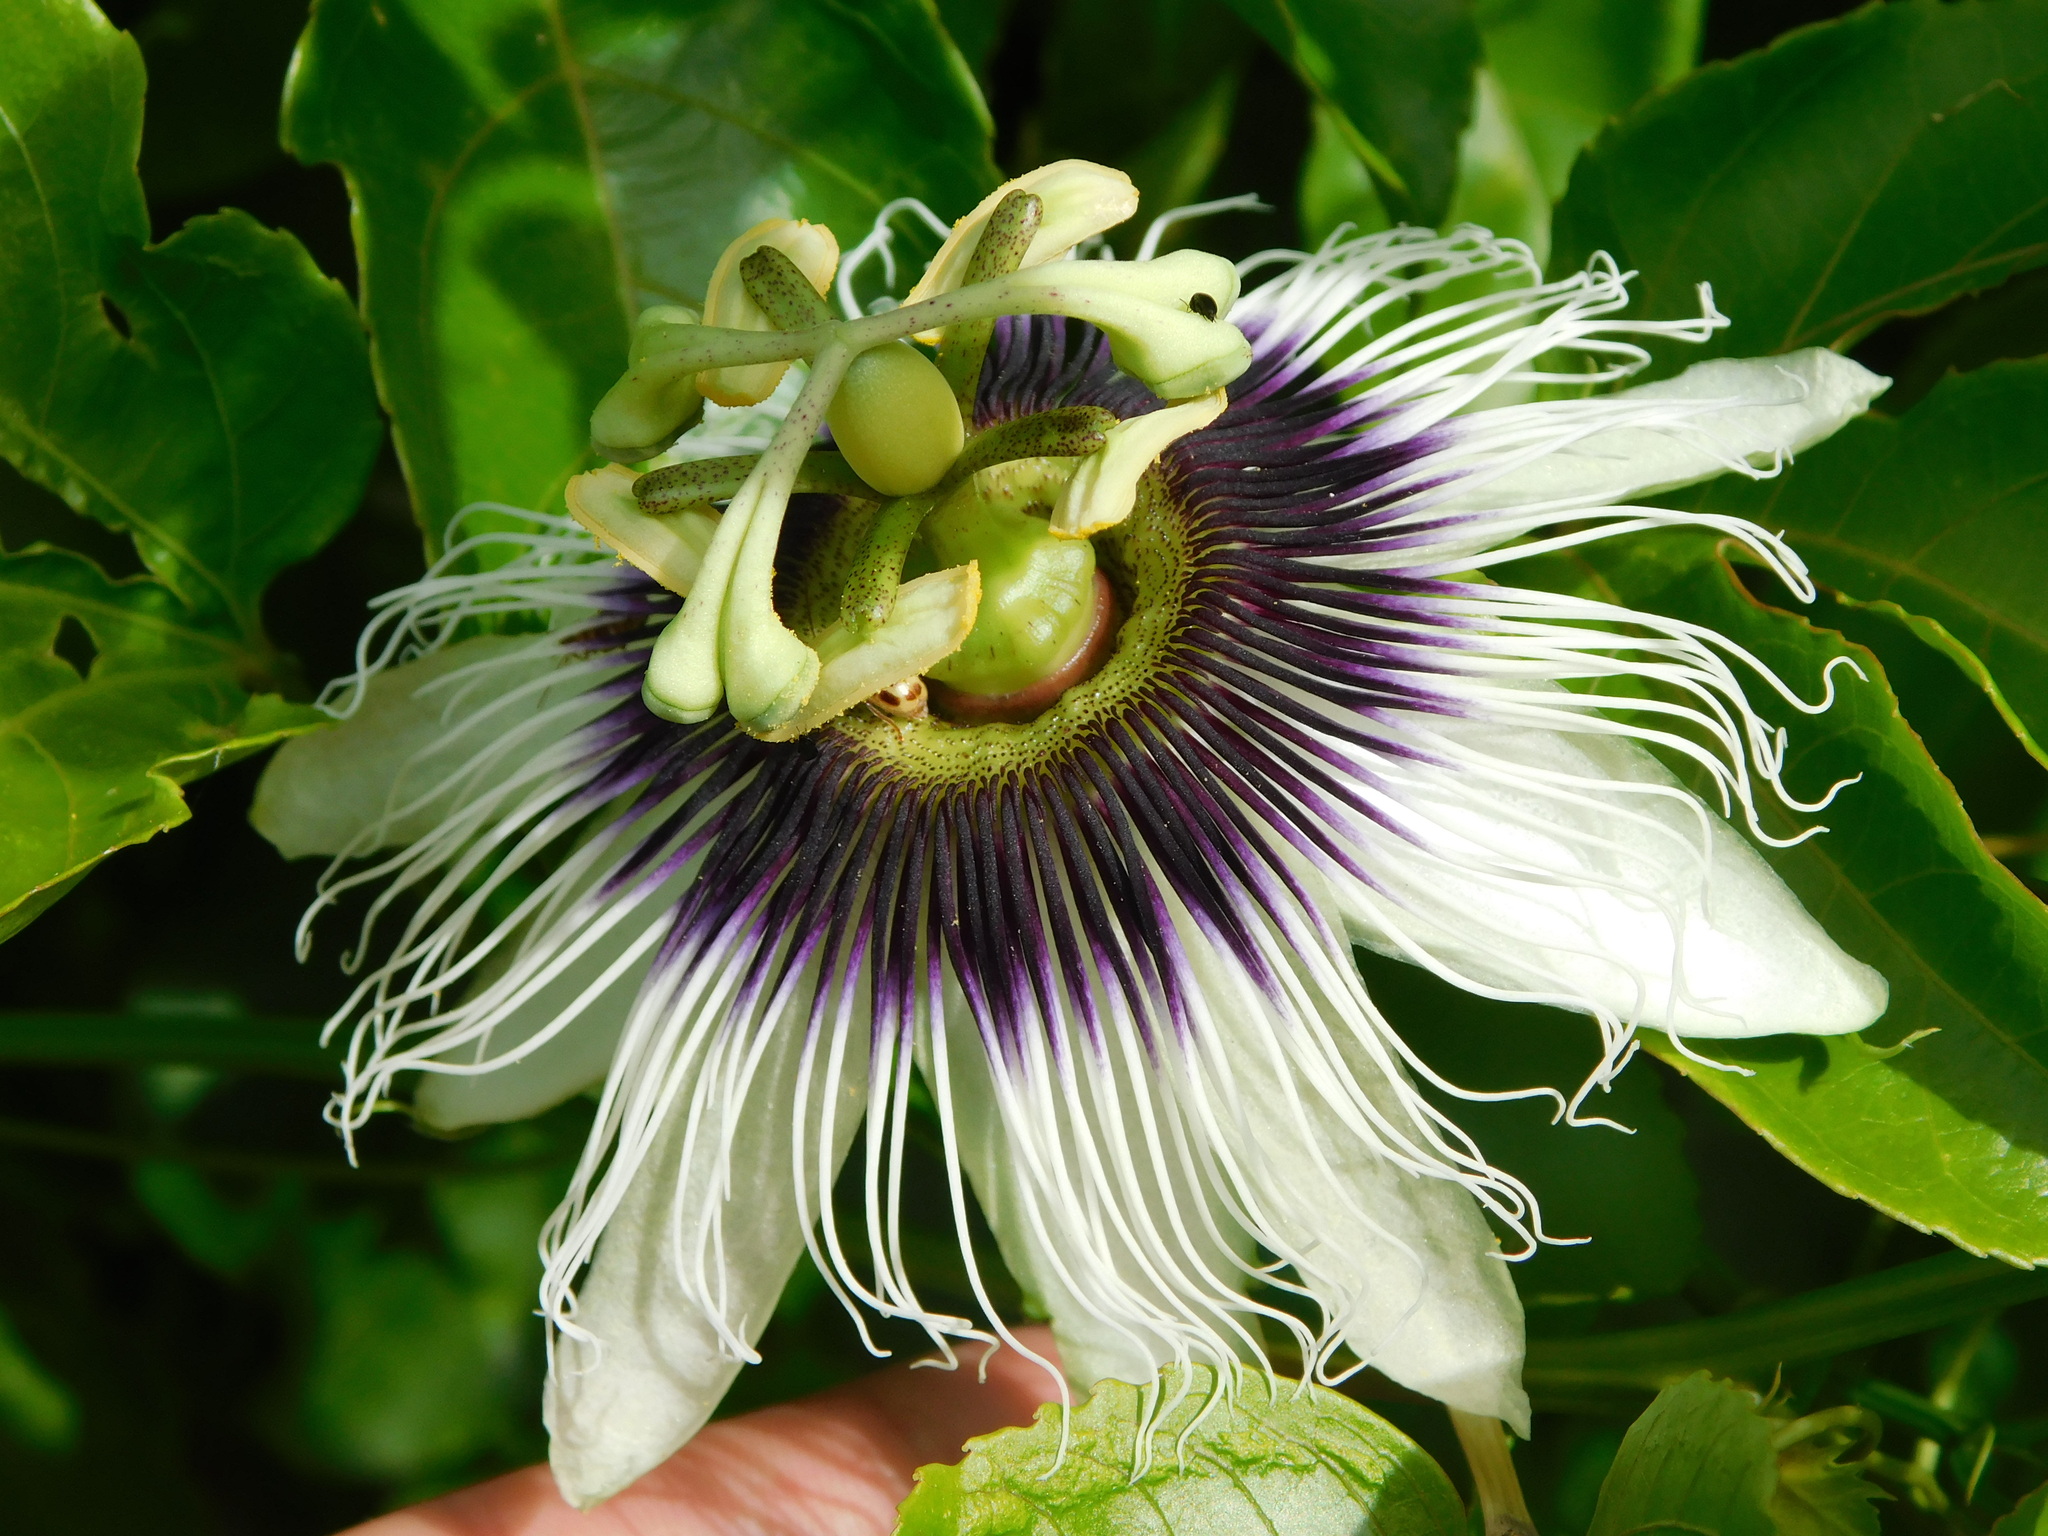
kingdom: Plantae
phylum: Tracheophyta
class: Magnoliopsida
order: Malpighiales
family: Passifloraceae
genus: Passiflora
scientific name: Passiflora edulis
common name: Purple granadilla
